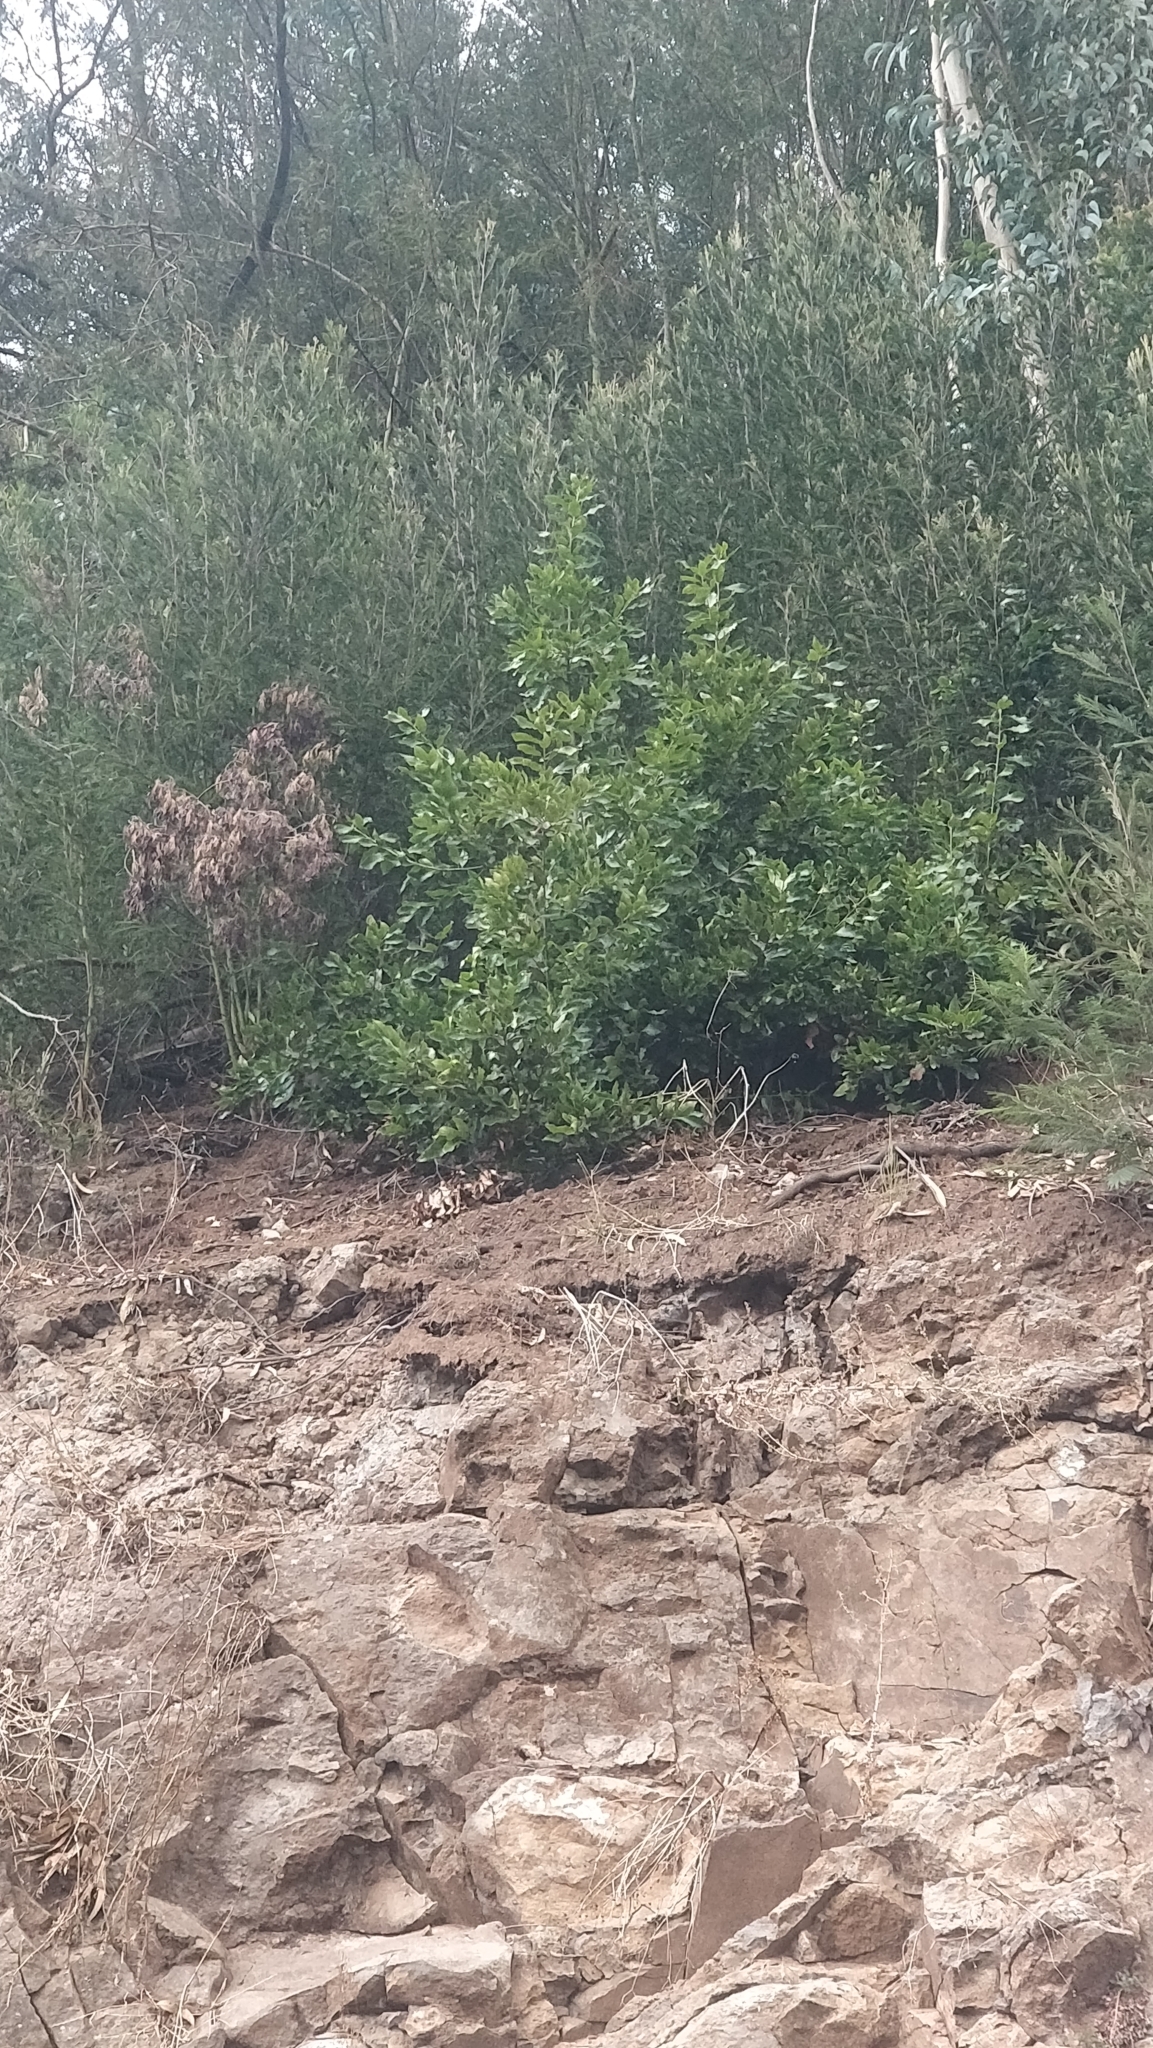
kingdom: Plantae
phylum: Tracheophyta
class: Magnoliopsida
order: Laurales
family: Lauraceae
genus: Laurus
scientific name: Laurus novocanariensis
